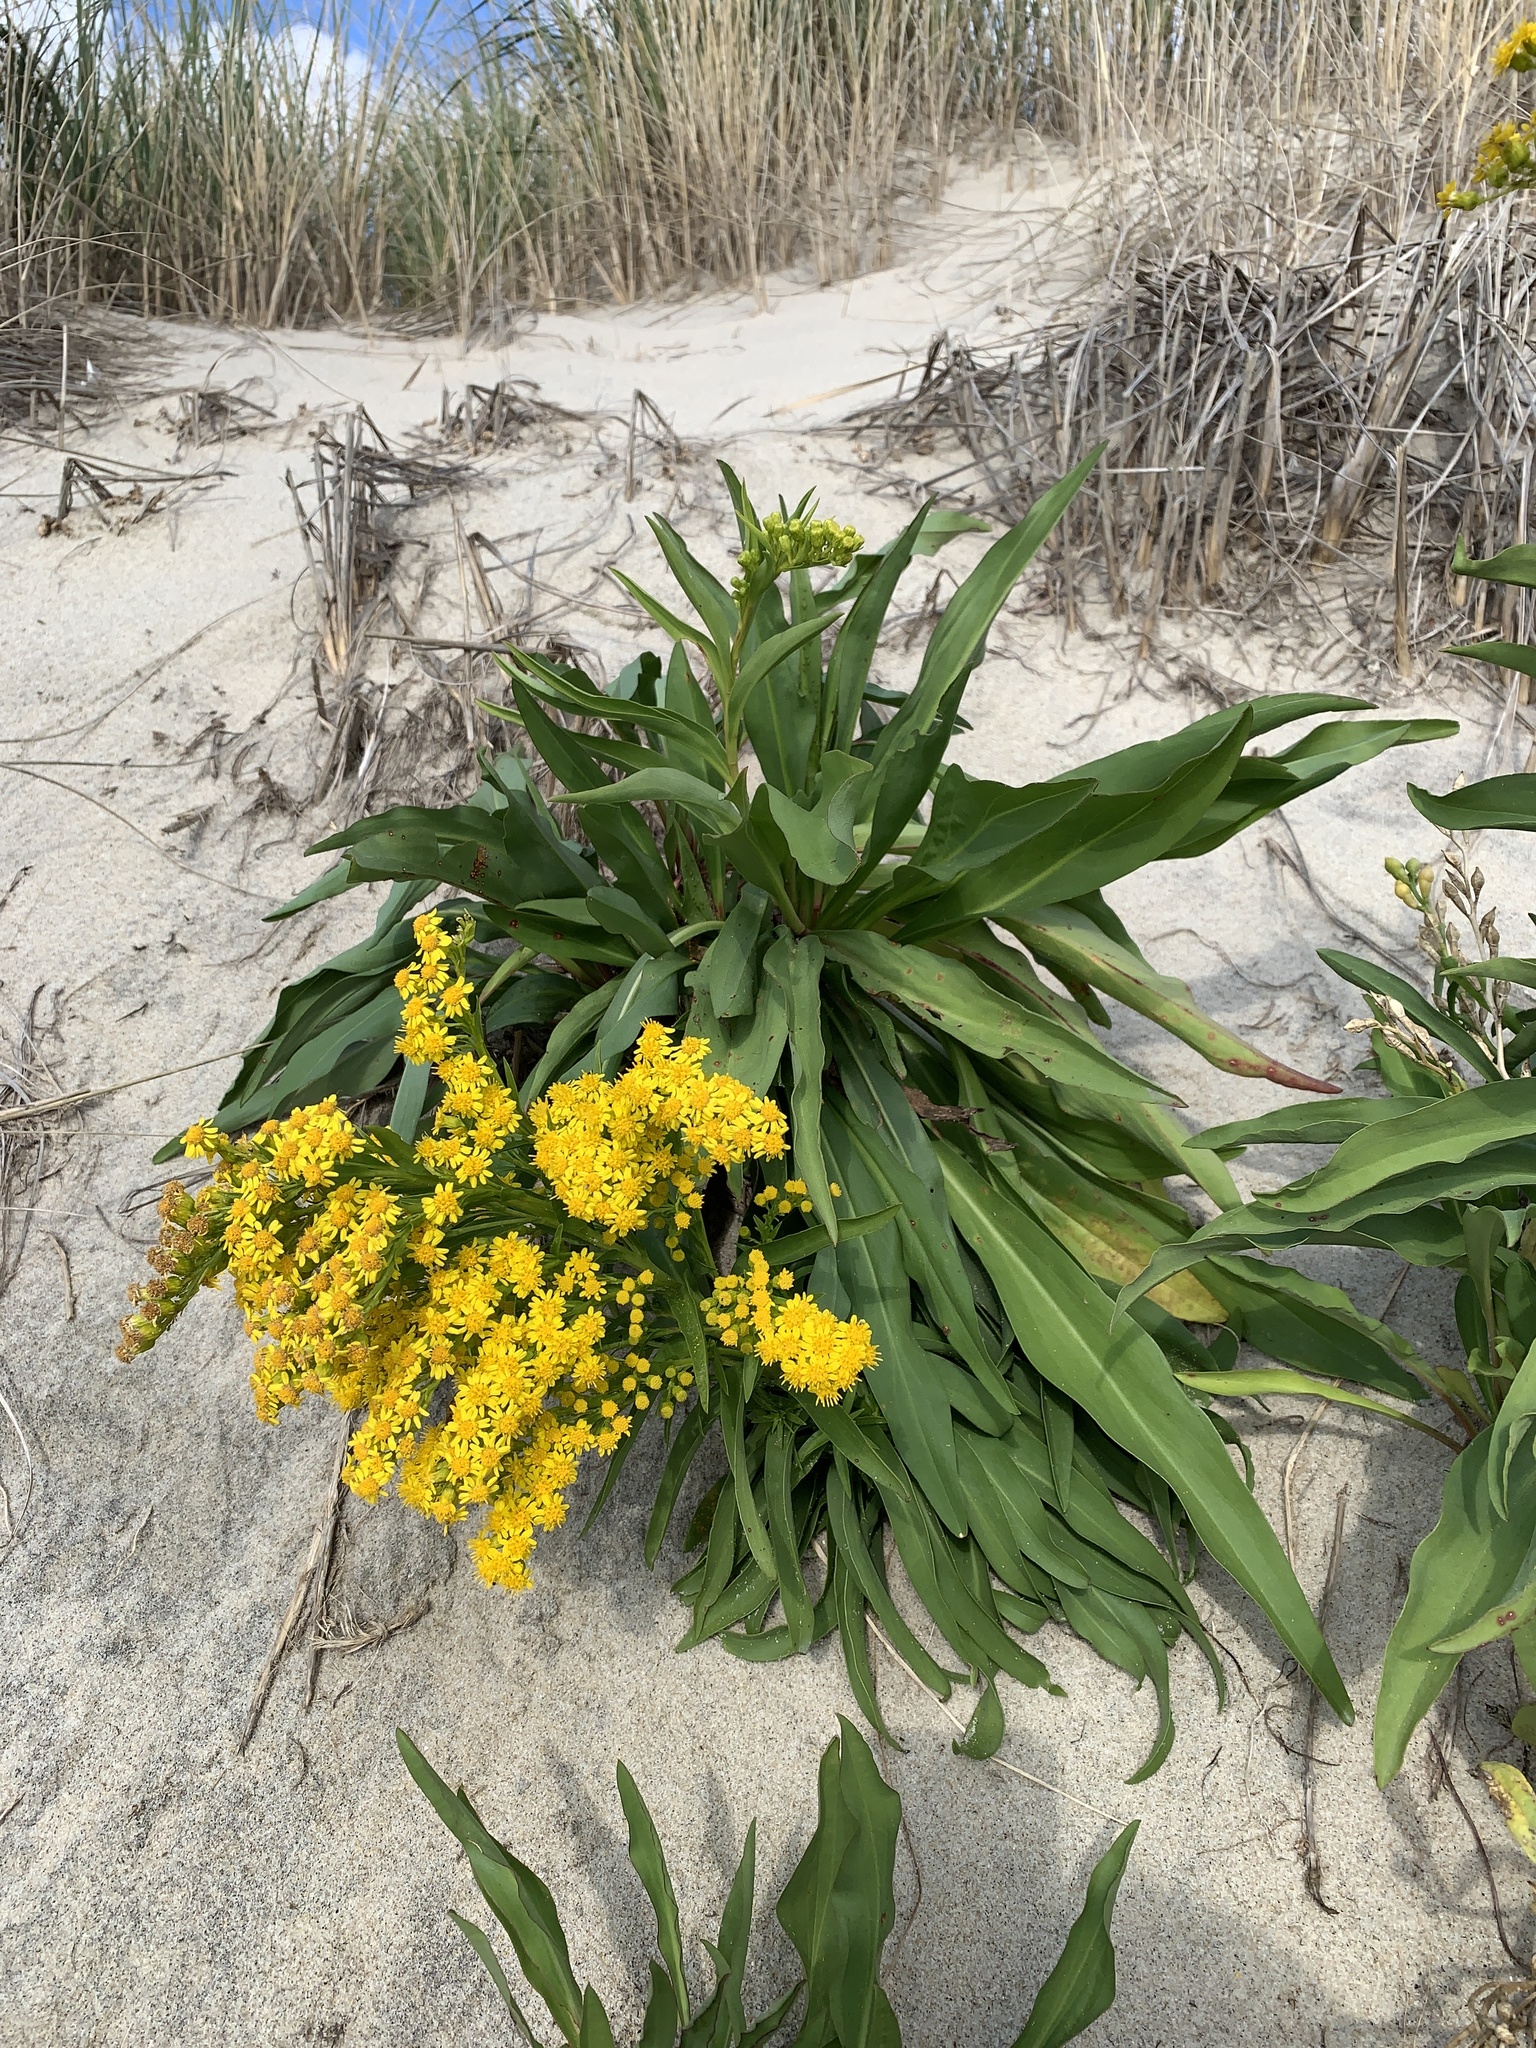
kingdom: Plantae
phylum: Tracheophyta
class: Magnoliopsida
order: Asterales
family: Asteraceae
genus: Solidago
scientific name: Solidago sempervirens
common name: Salt-marsh goldenrod
